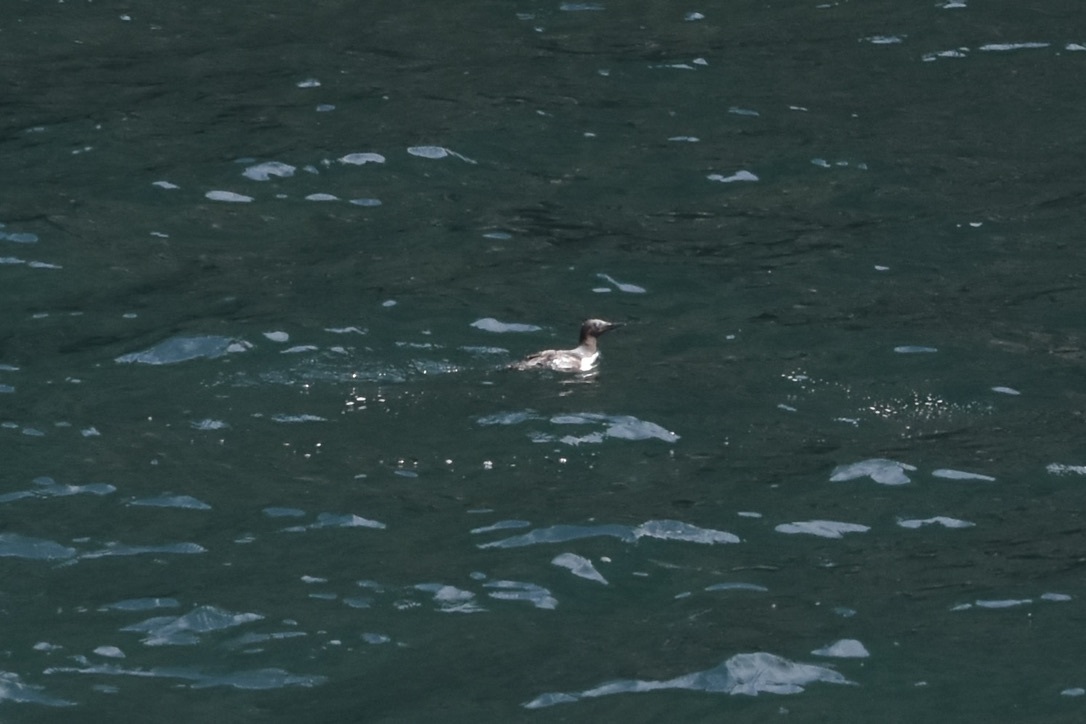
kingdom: Animalia
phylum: Chordata
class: Aves
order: Charadriiformes
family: Alcidae
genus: Uria
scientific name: Uria aalge
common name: Common murre
